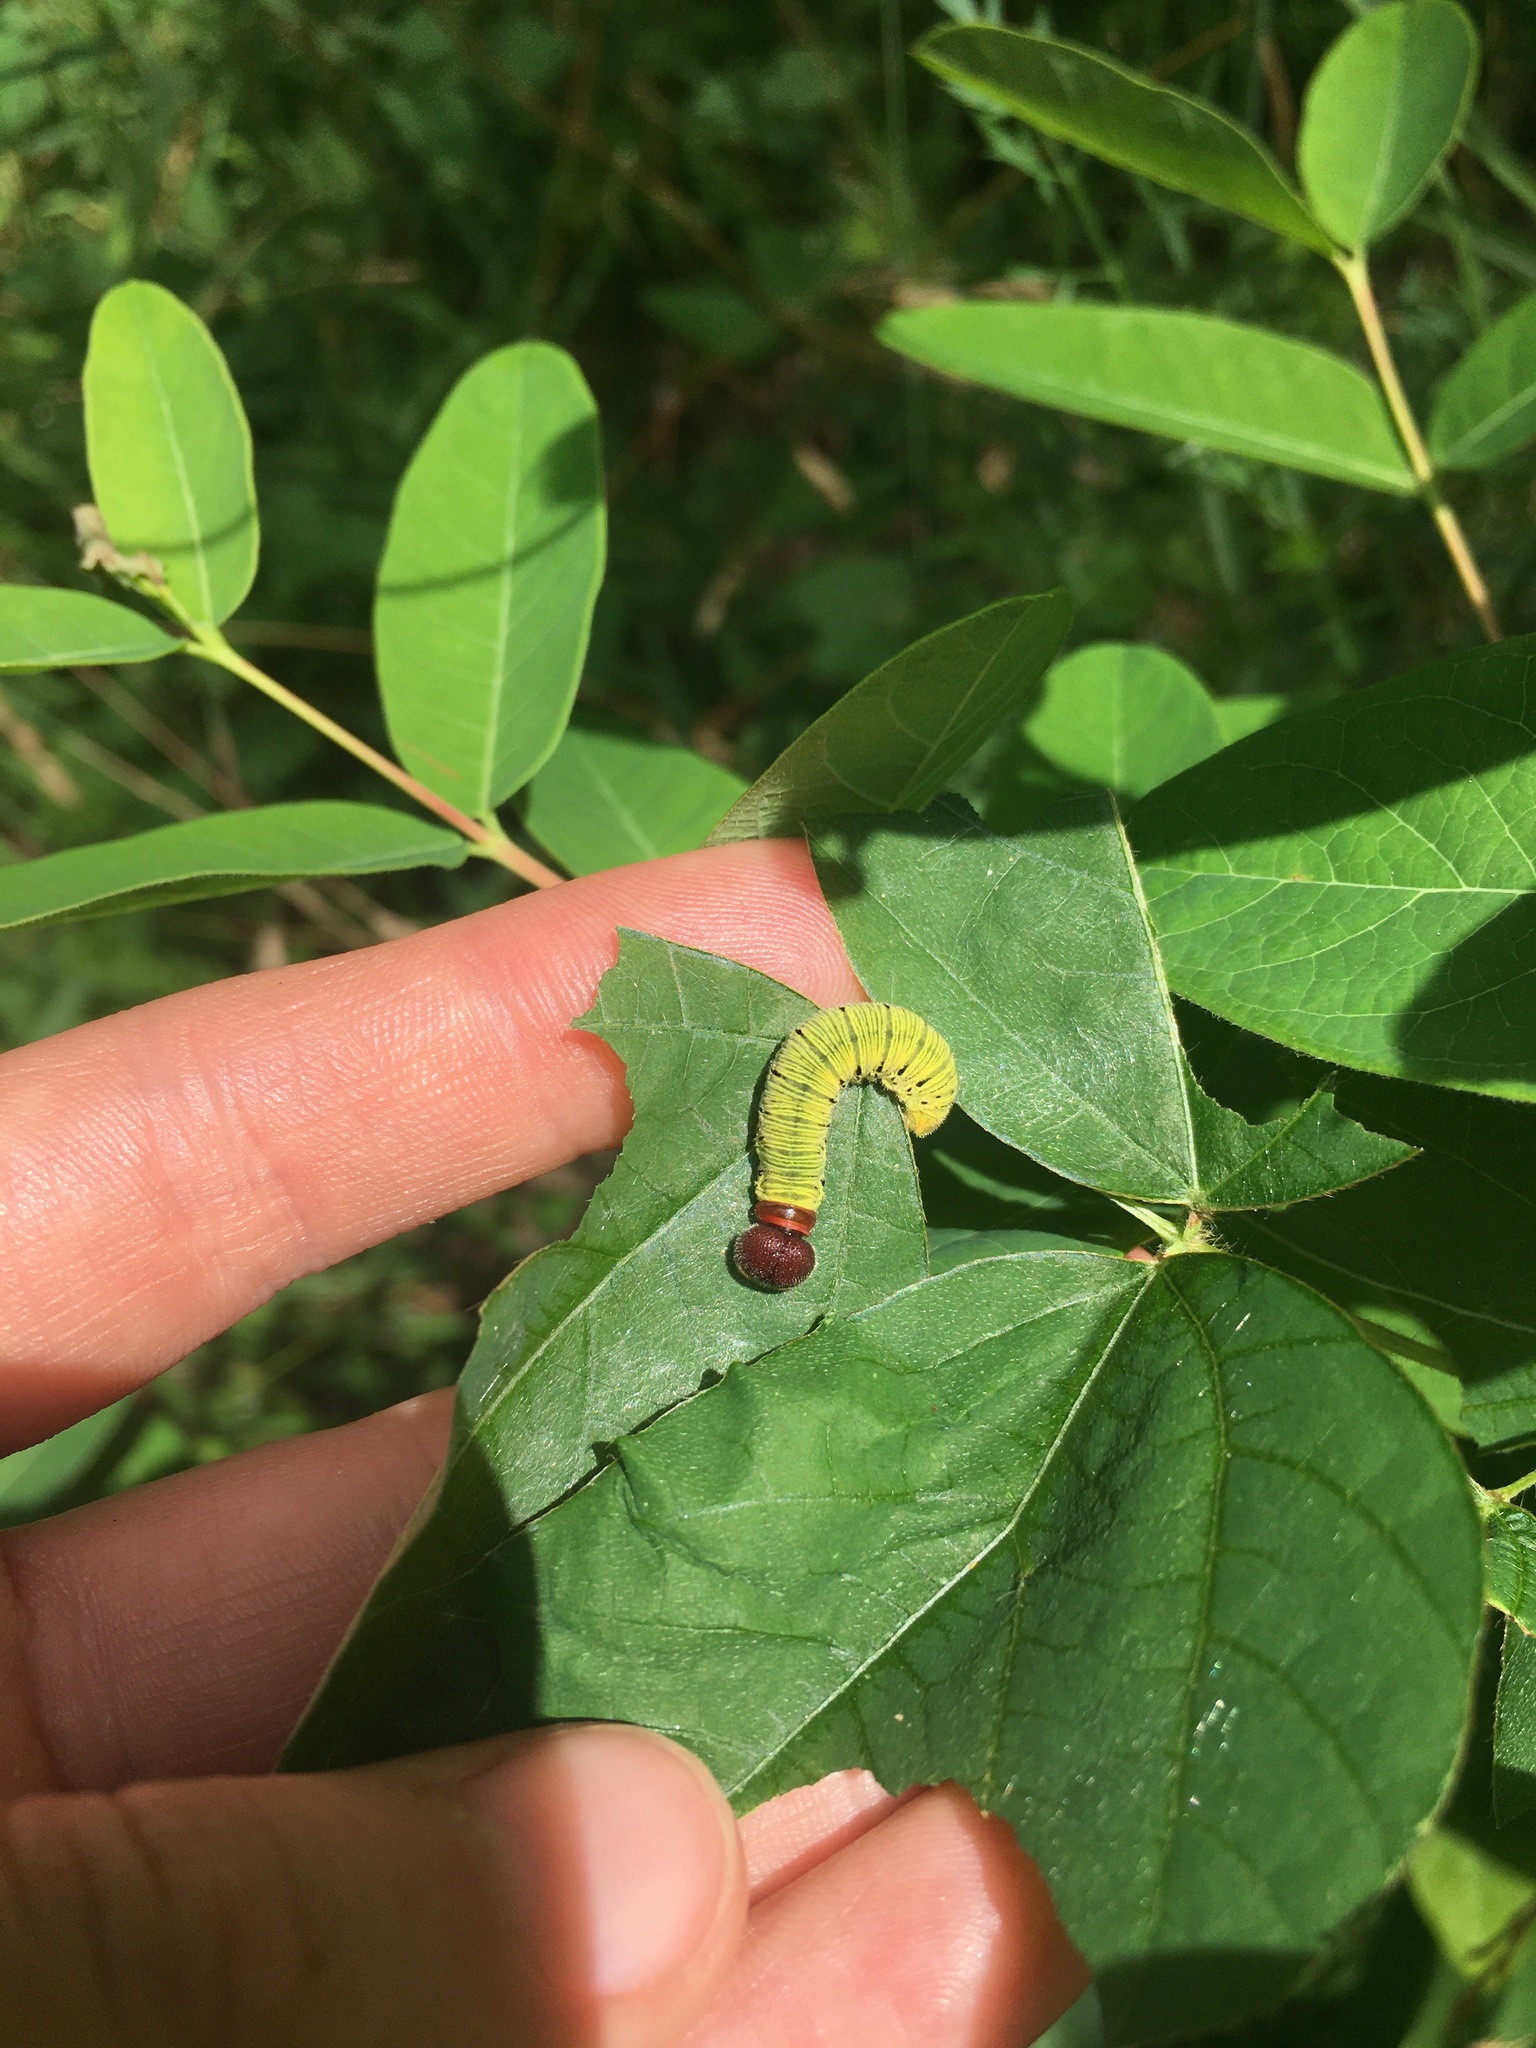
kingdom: Animalia
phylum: Arthropoda
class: Insecta
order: Lepidoptera
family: Hesperiidae
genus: Epargyreus
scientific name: Epargyreus clarus
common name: Silver-spotted skipper
